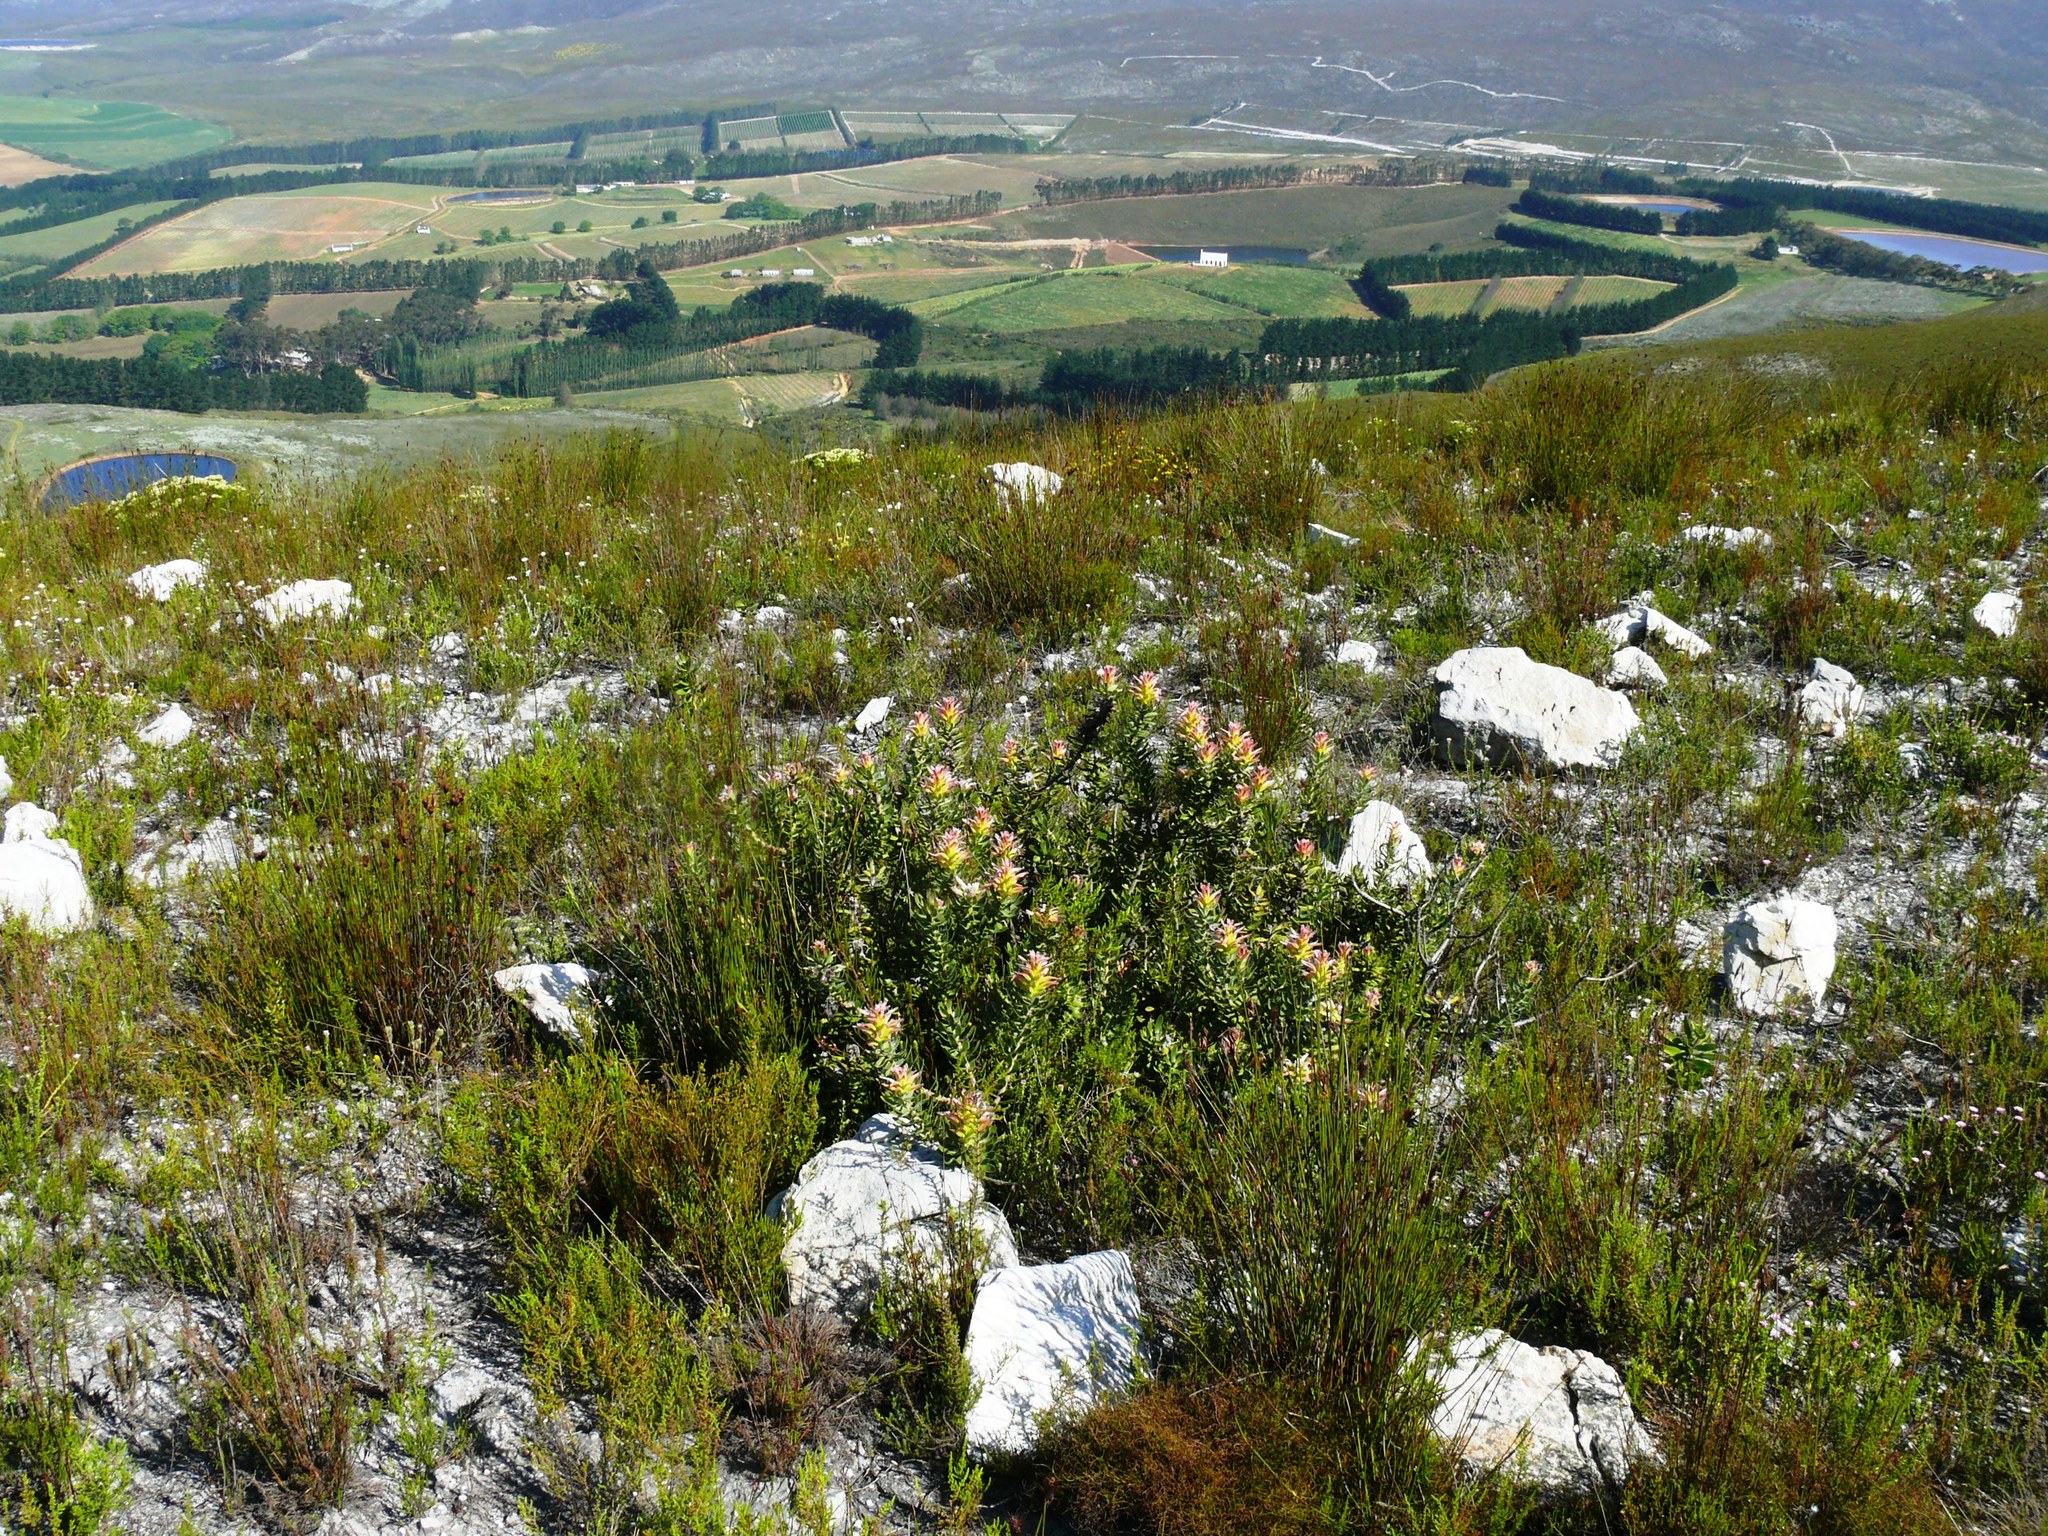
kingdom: Plantae
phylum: Tracheophyta
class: Magnoliopsida
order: Proteales
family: Proteaceae
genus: Mimetes
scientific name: Mimetes cucullatus
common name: Common pagoda
